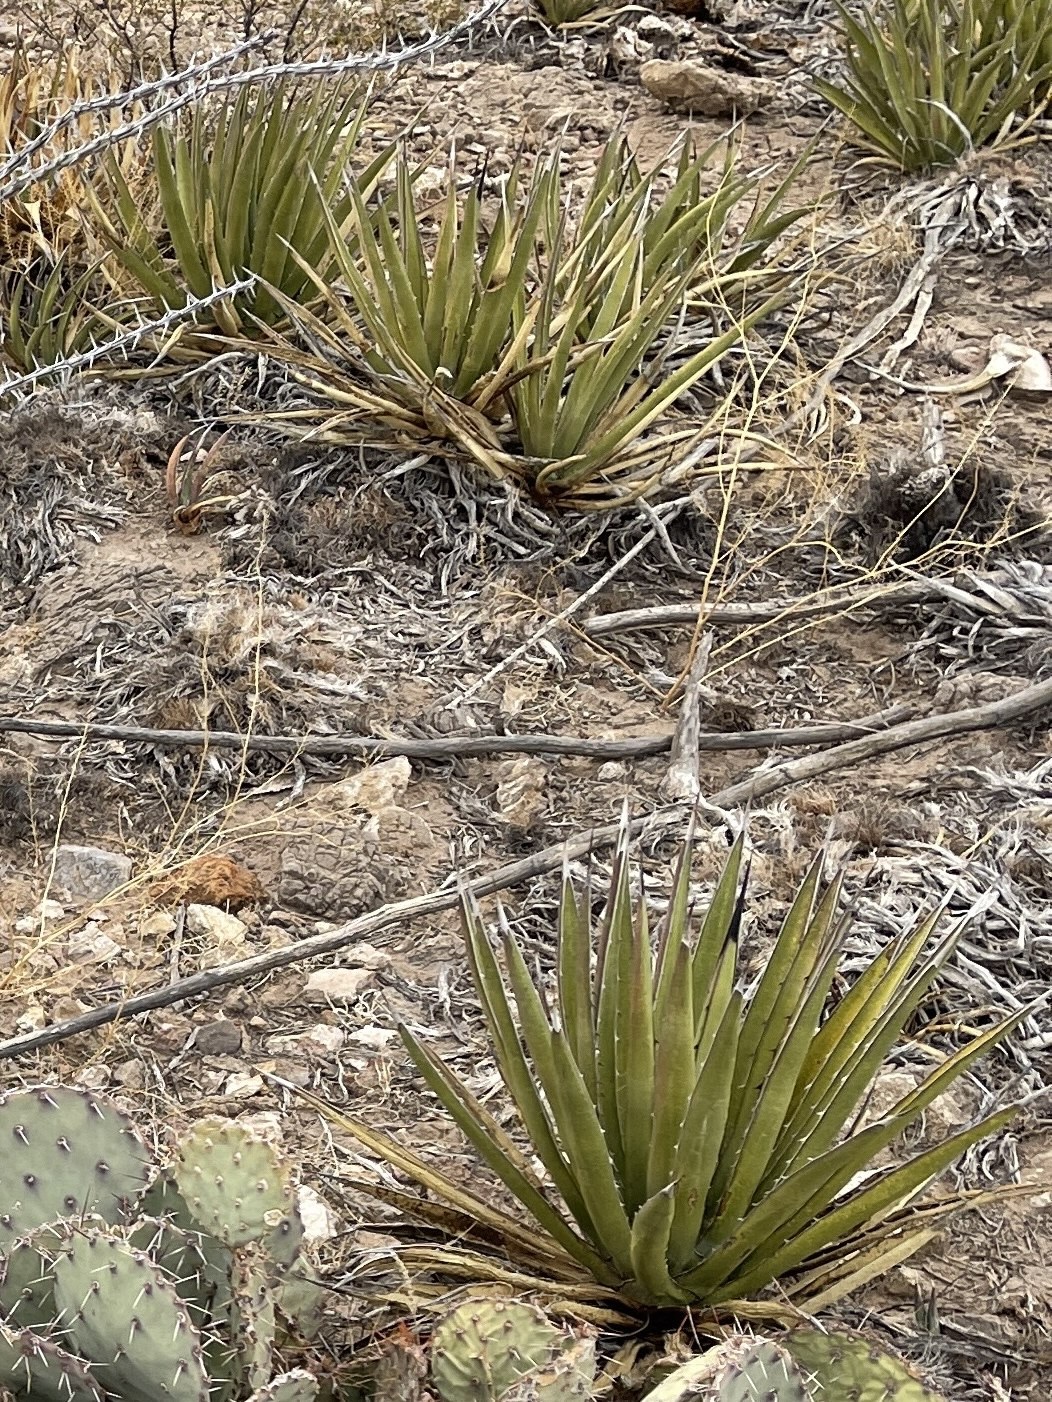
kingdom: Plantae
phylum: Tracheophyta
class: Liliopsida
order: Asparagales
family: Asparagaceae
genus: Agave
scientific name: Agave lechuguilla
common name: Lecheguilla agave
